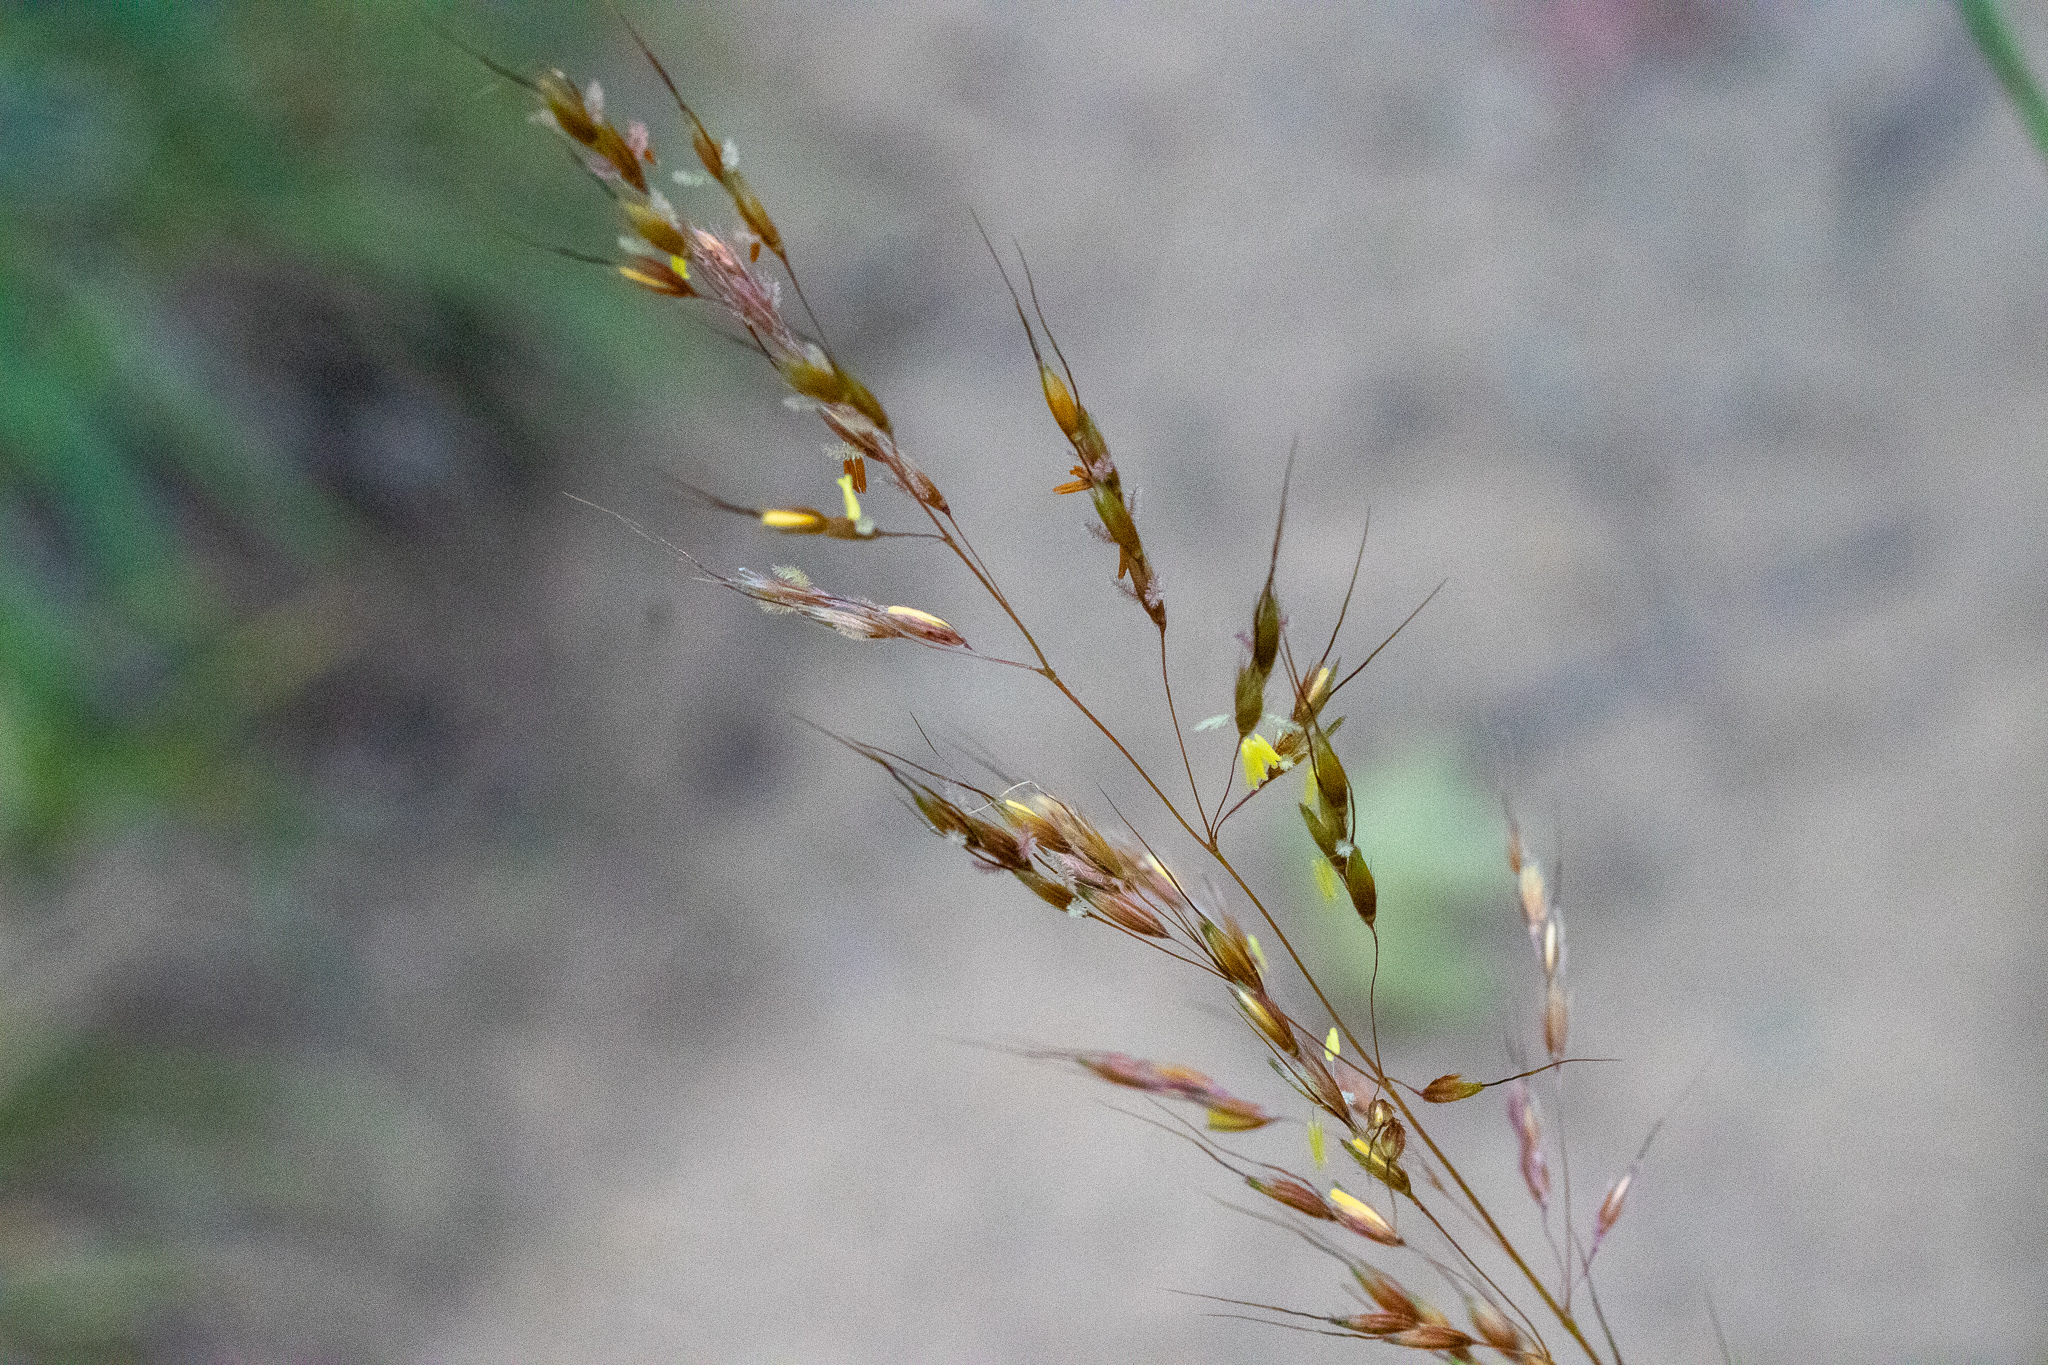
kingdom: Plantae
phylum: Tracheophyta
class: Liliopsida
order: Poales
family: Poaceae
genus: Sorghastrum
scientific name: Sorghastrum nutans
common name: Indian grass
